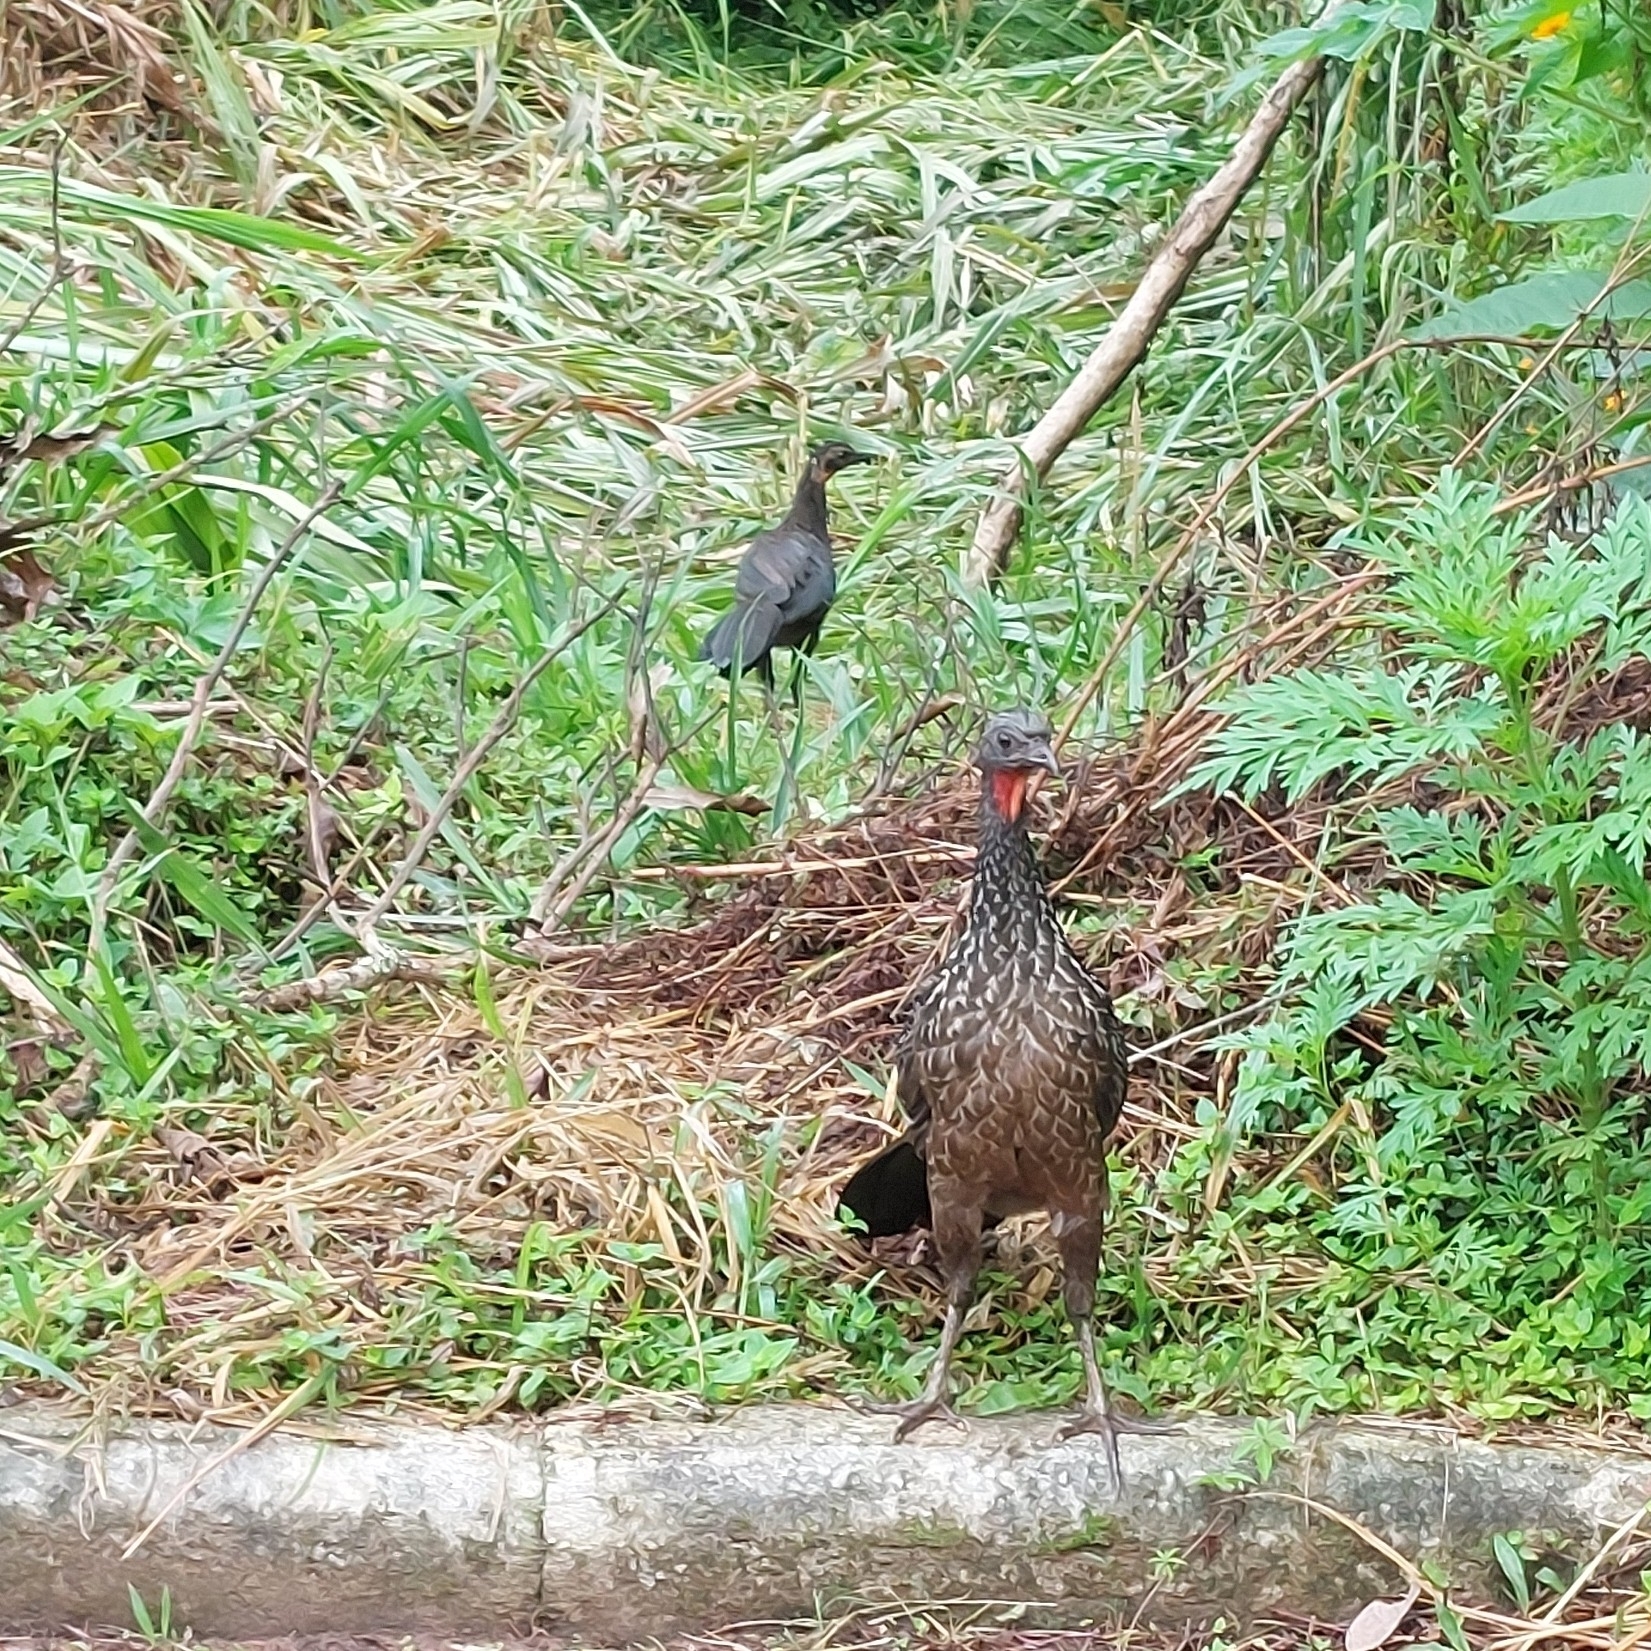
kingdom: Animalia
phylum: Chordata
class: Aves
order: Galliformes
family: Cracidae
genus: Penelope
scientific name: Penelope obscura
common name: Dusky-legged guan
